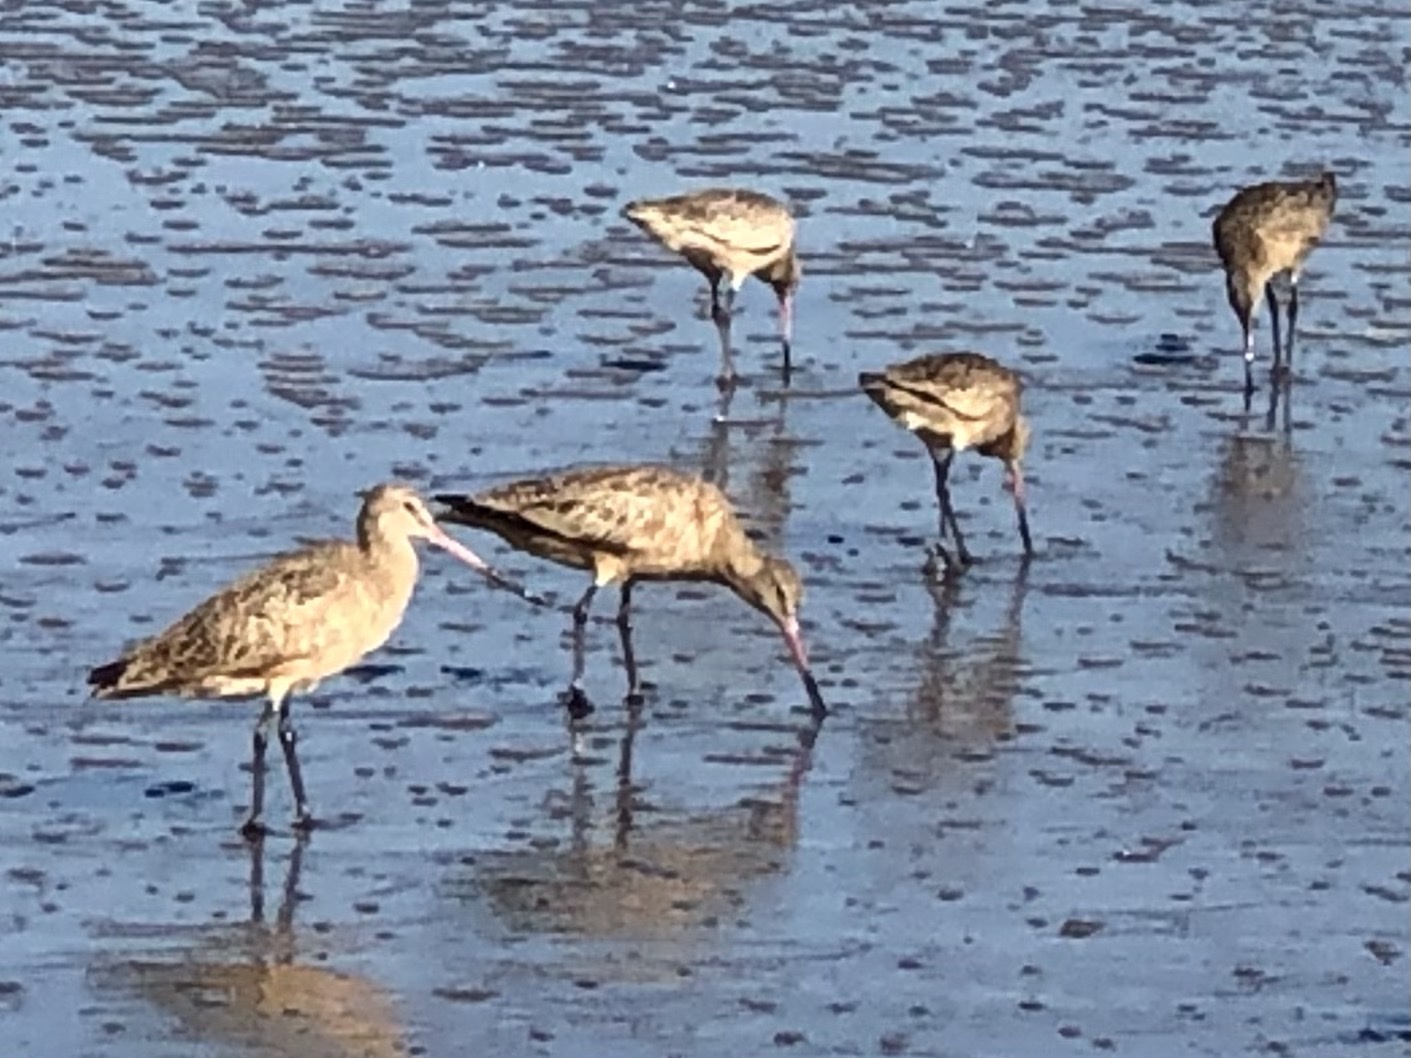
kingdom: Animalia
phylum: Chordata
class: Aves
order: Charadriiformes
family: Scolopacidae
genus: Limosa
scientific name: Limosa fedoa
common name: Marbled godwit
